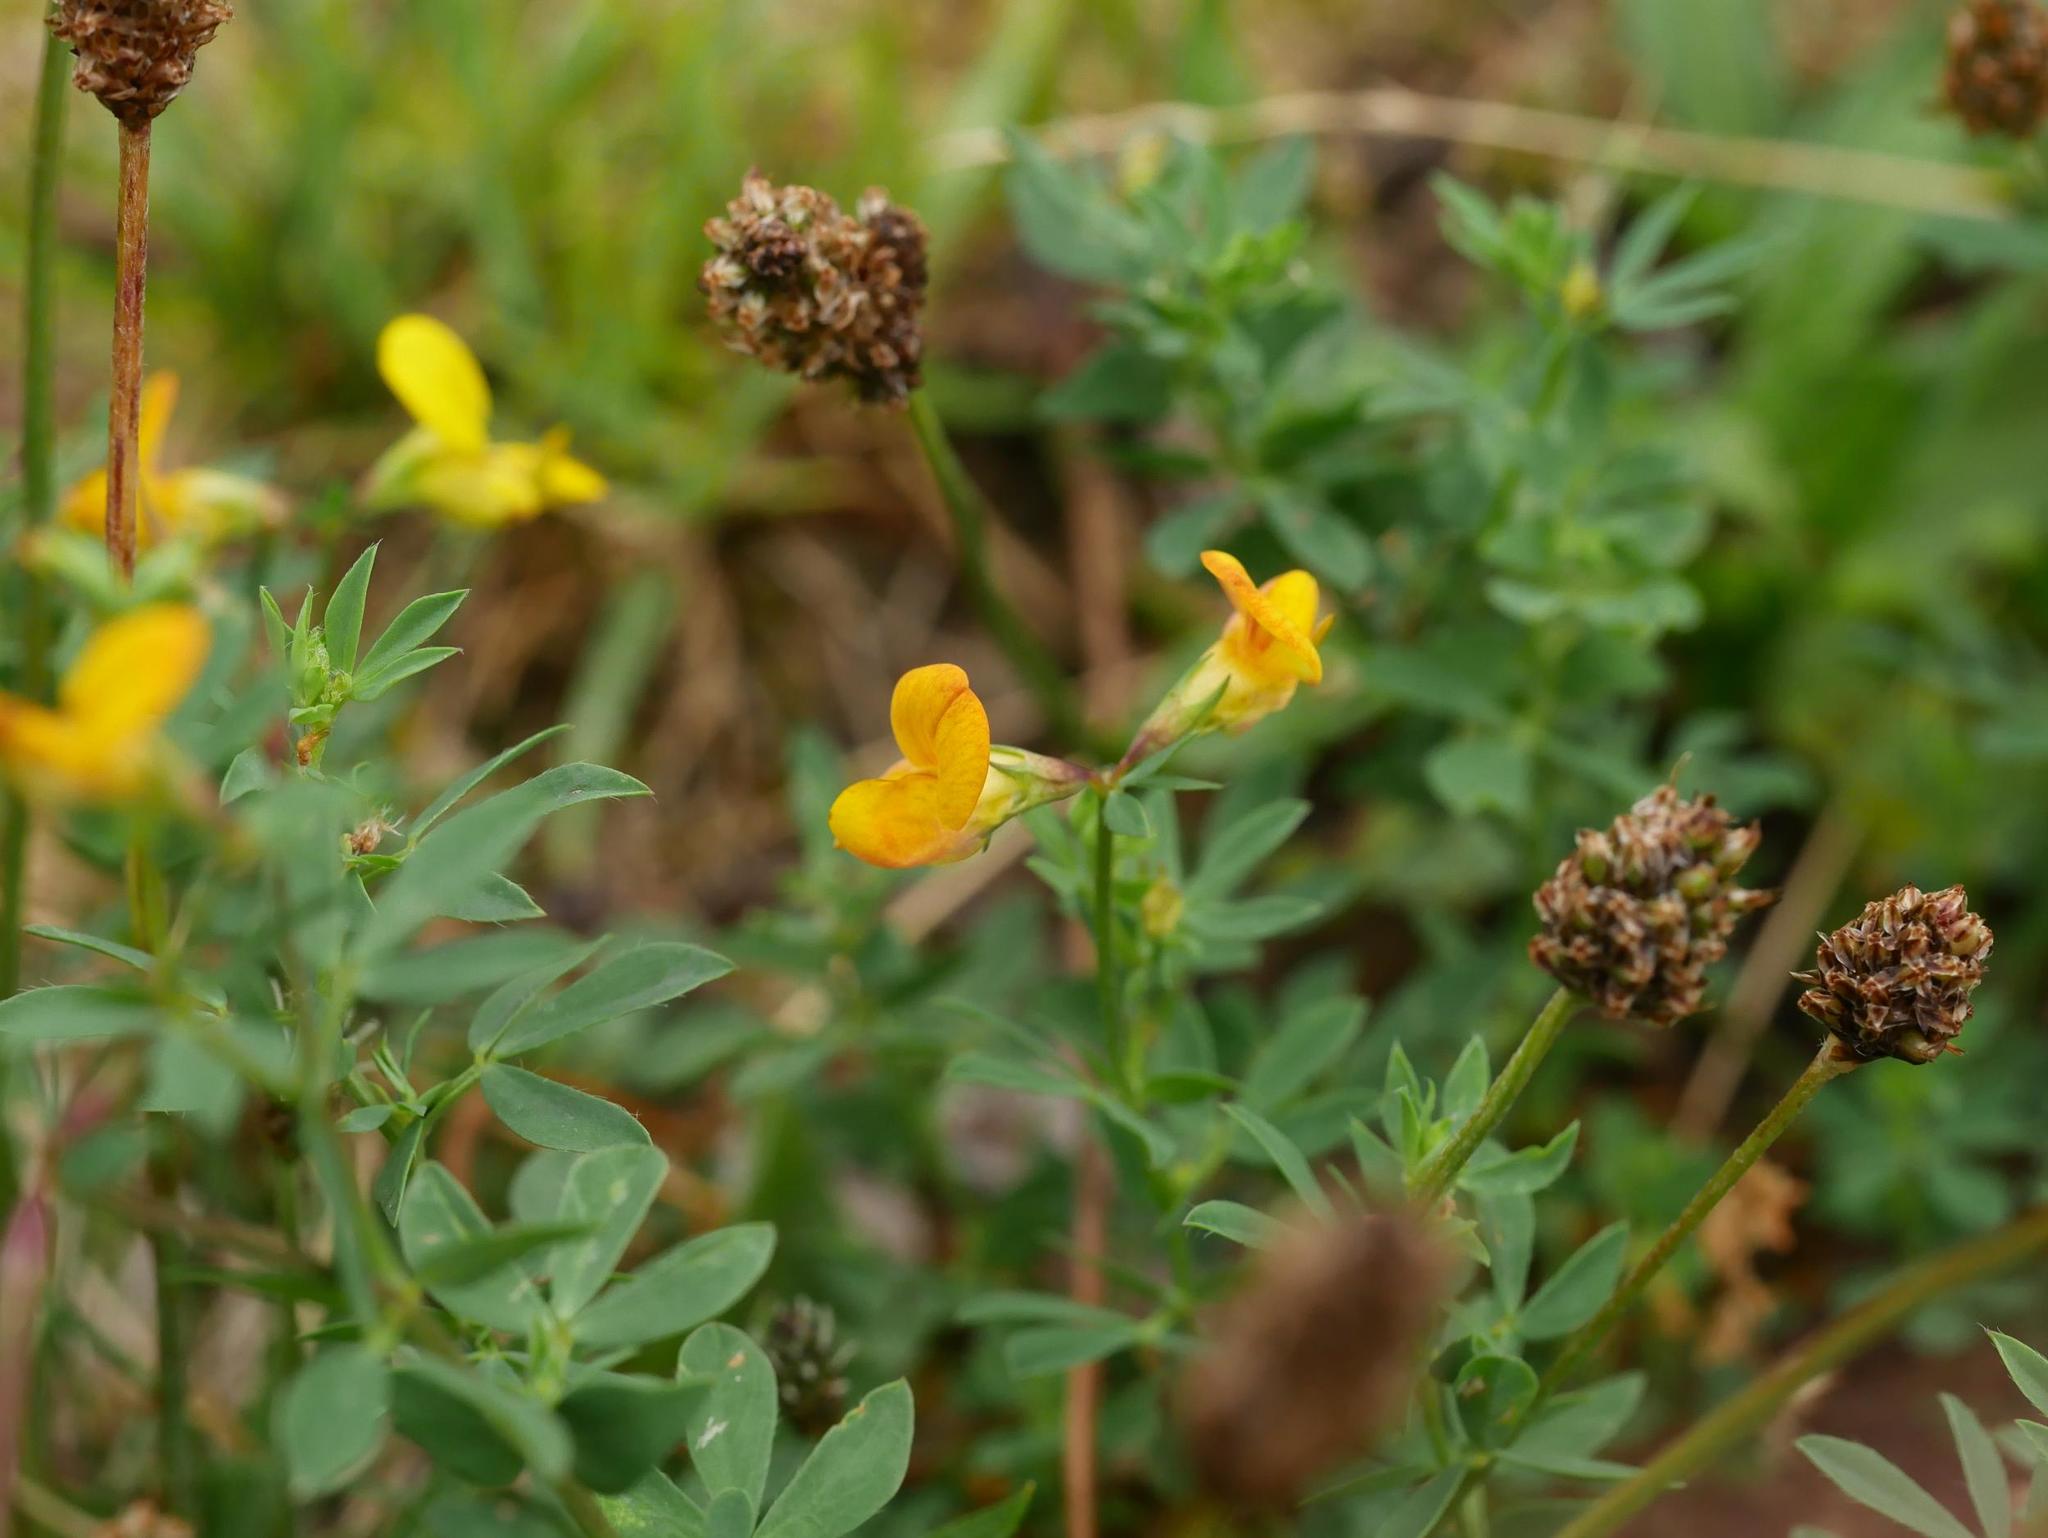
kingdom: Plantae
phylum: Tracheophyta
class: Magnoliopsida
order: Fabales
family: Fabaceae
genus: Lotus
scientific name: Lotus corniculatus
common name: Common bird's-foot-trefoil
